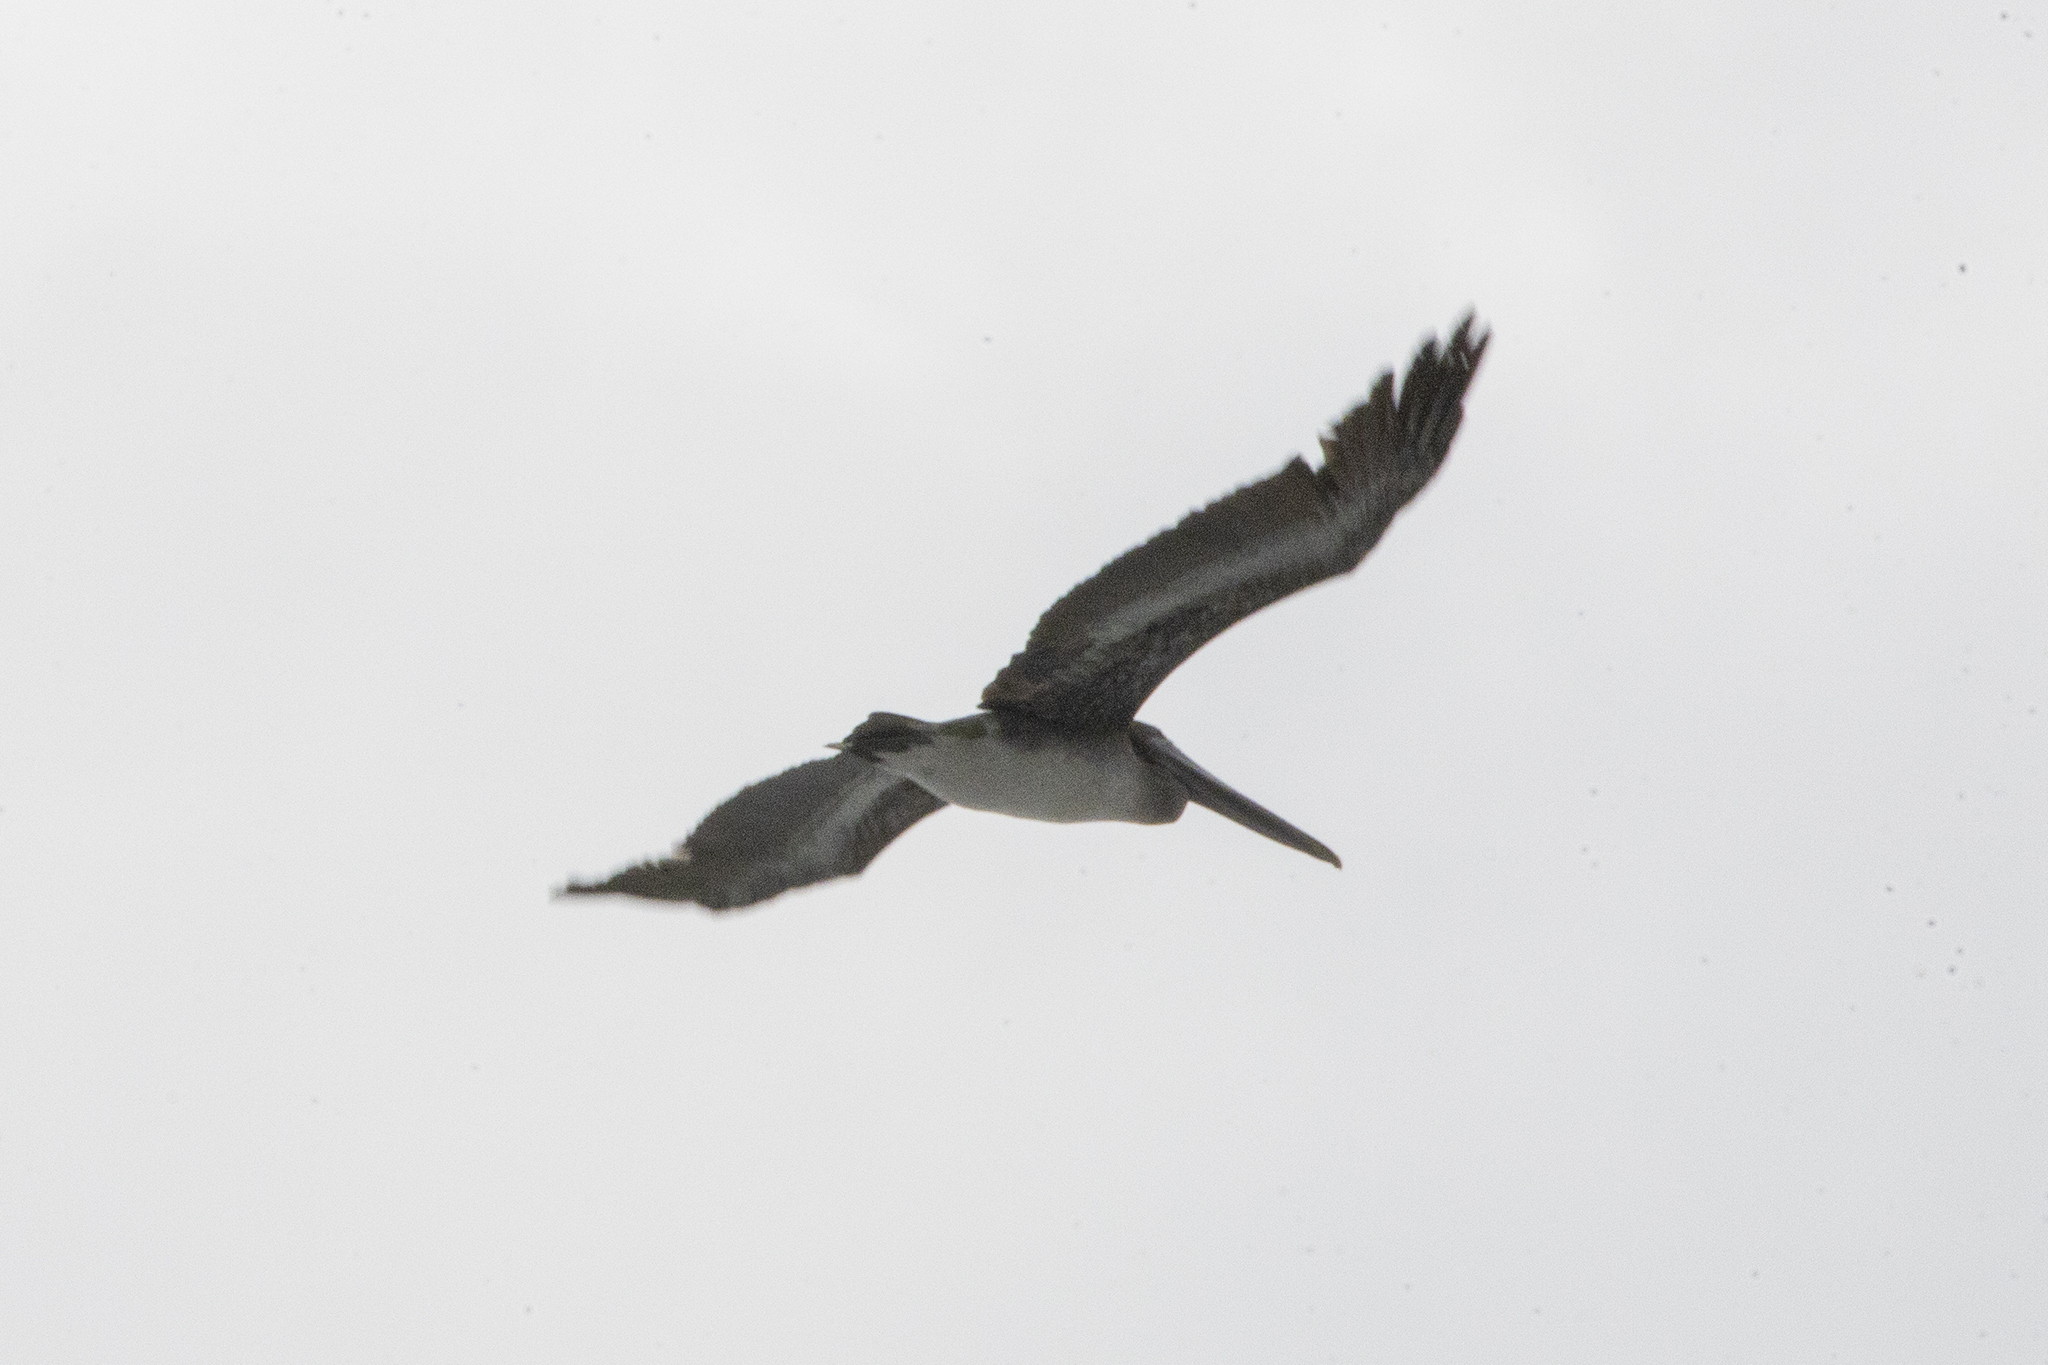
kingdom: Animalia
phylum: Chordata
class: Aves
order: Pelecaniformes
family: Pelecanidae
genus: Pelecanus
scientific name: Pelecanus occidentalis
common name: Brown pelican
